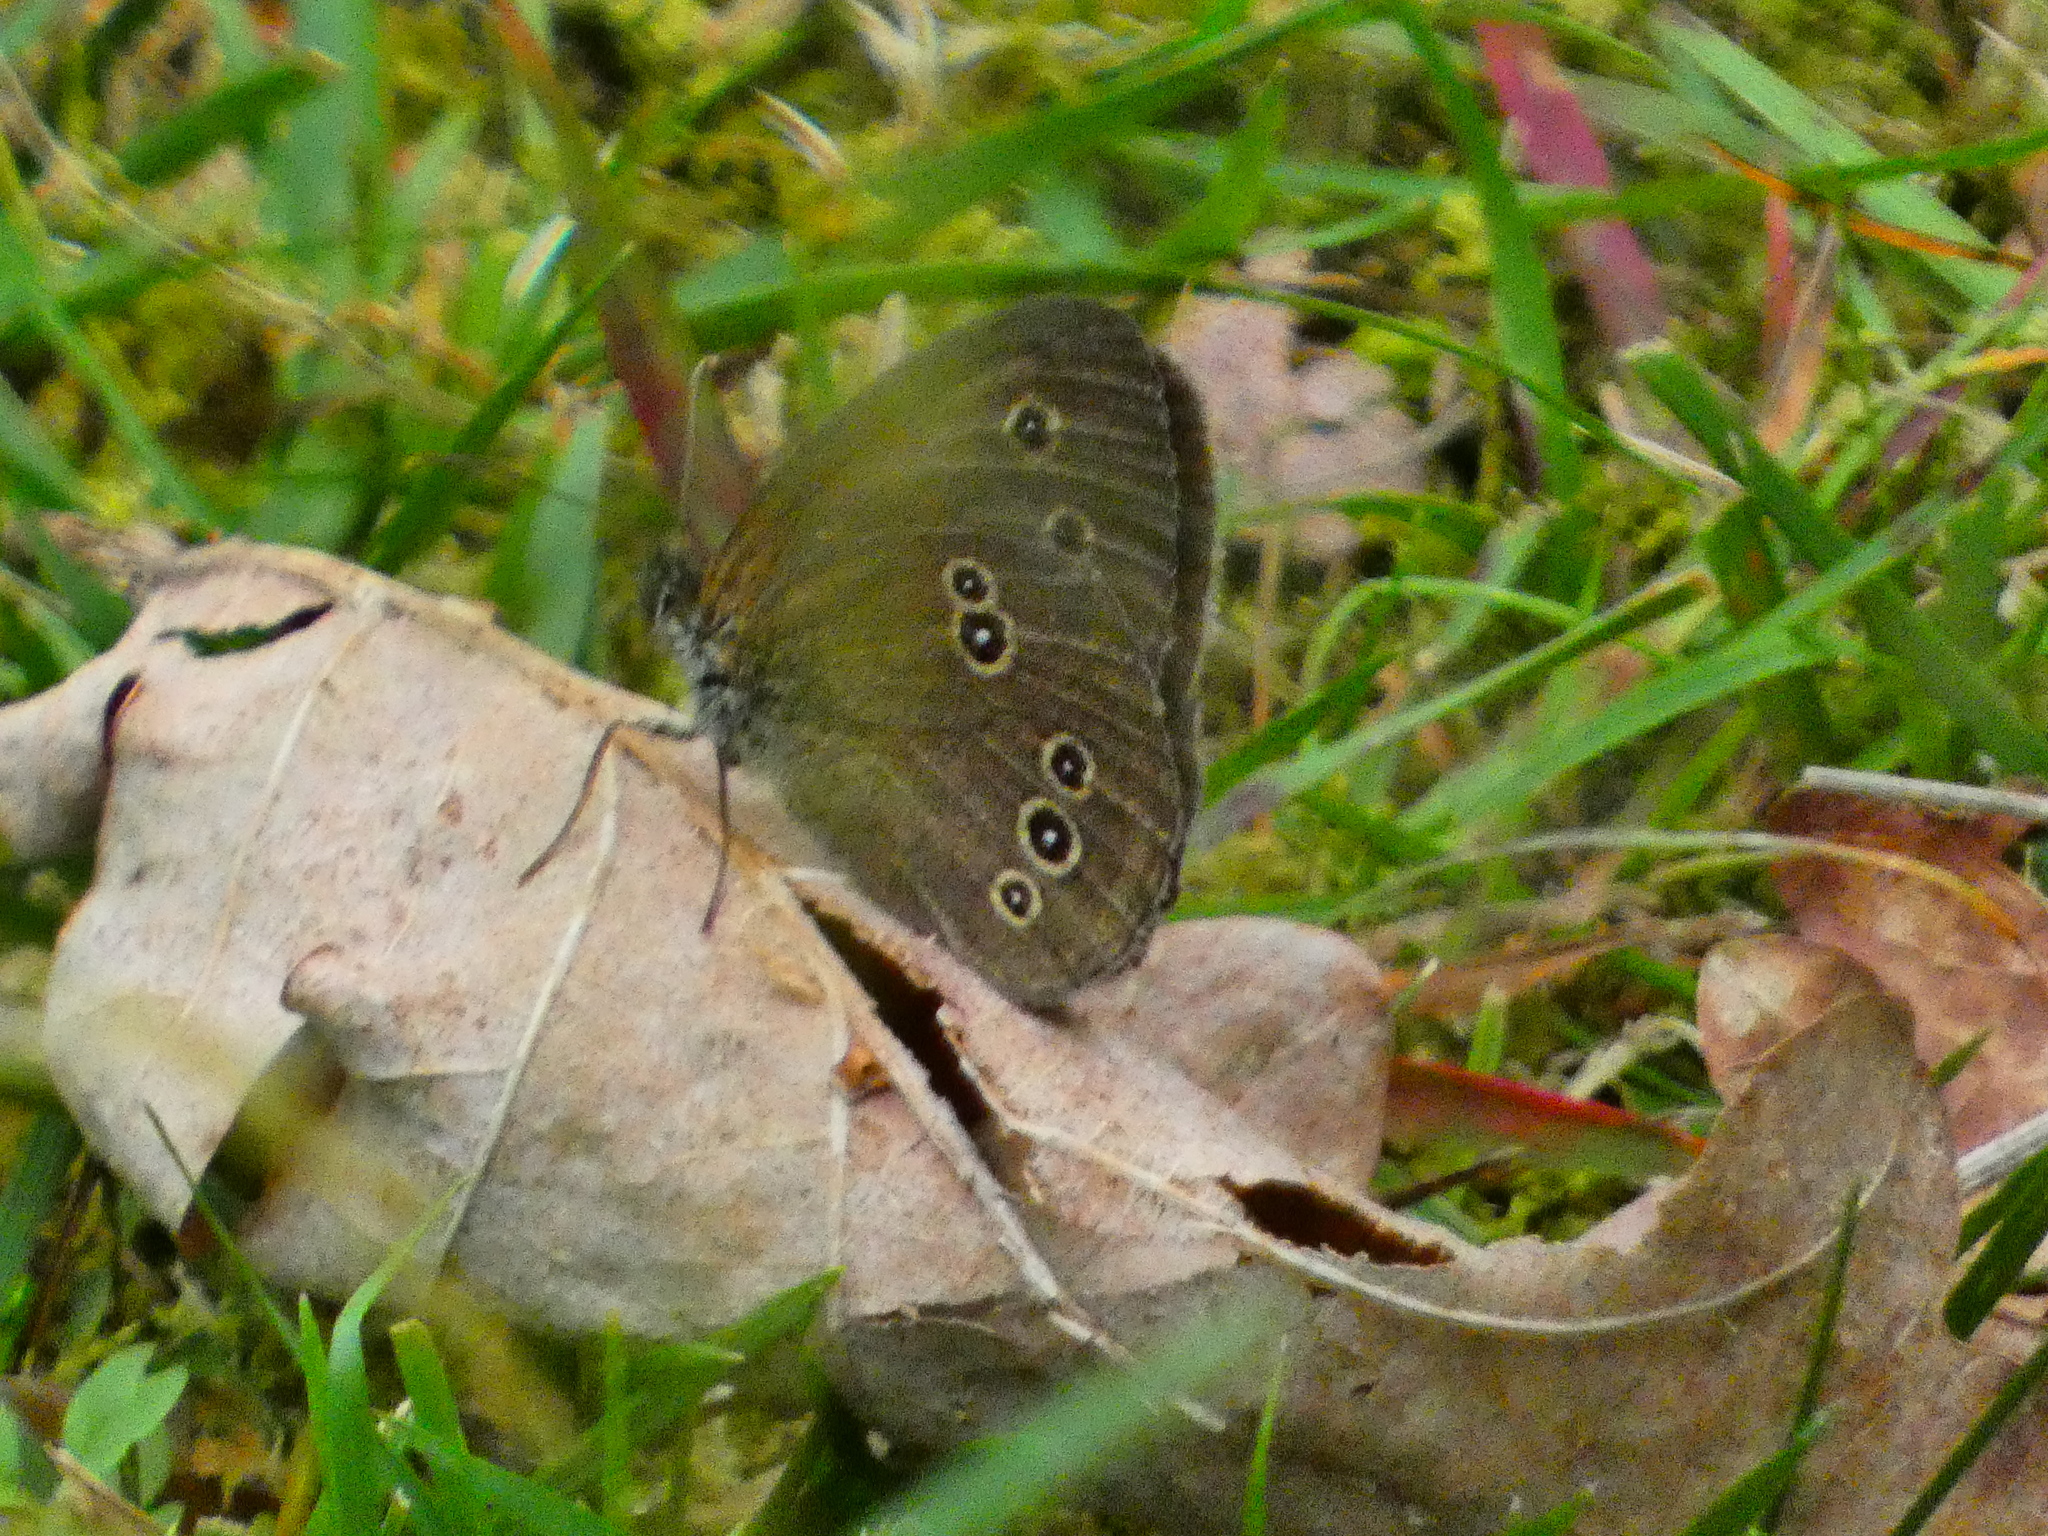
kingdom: Animalia
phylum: Arthropoda
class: Insecta
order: Lepidoptera
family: Nymphalidae
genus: Aphantopus
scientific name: Aphantopus hyperantus
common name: Ringlet
